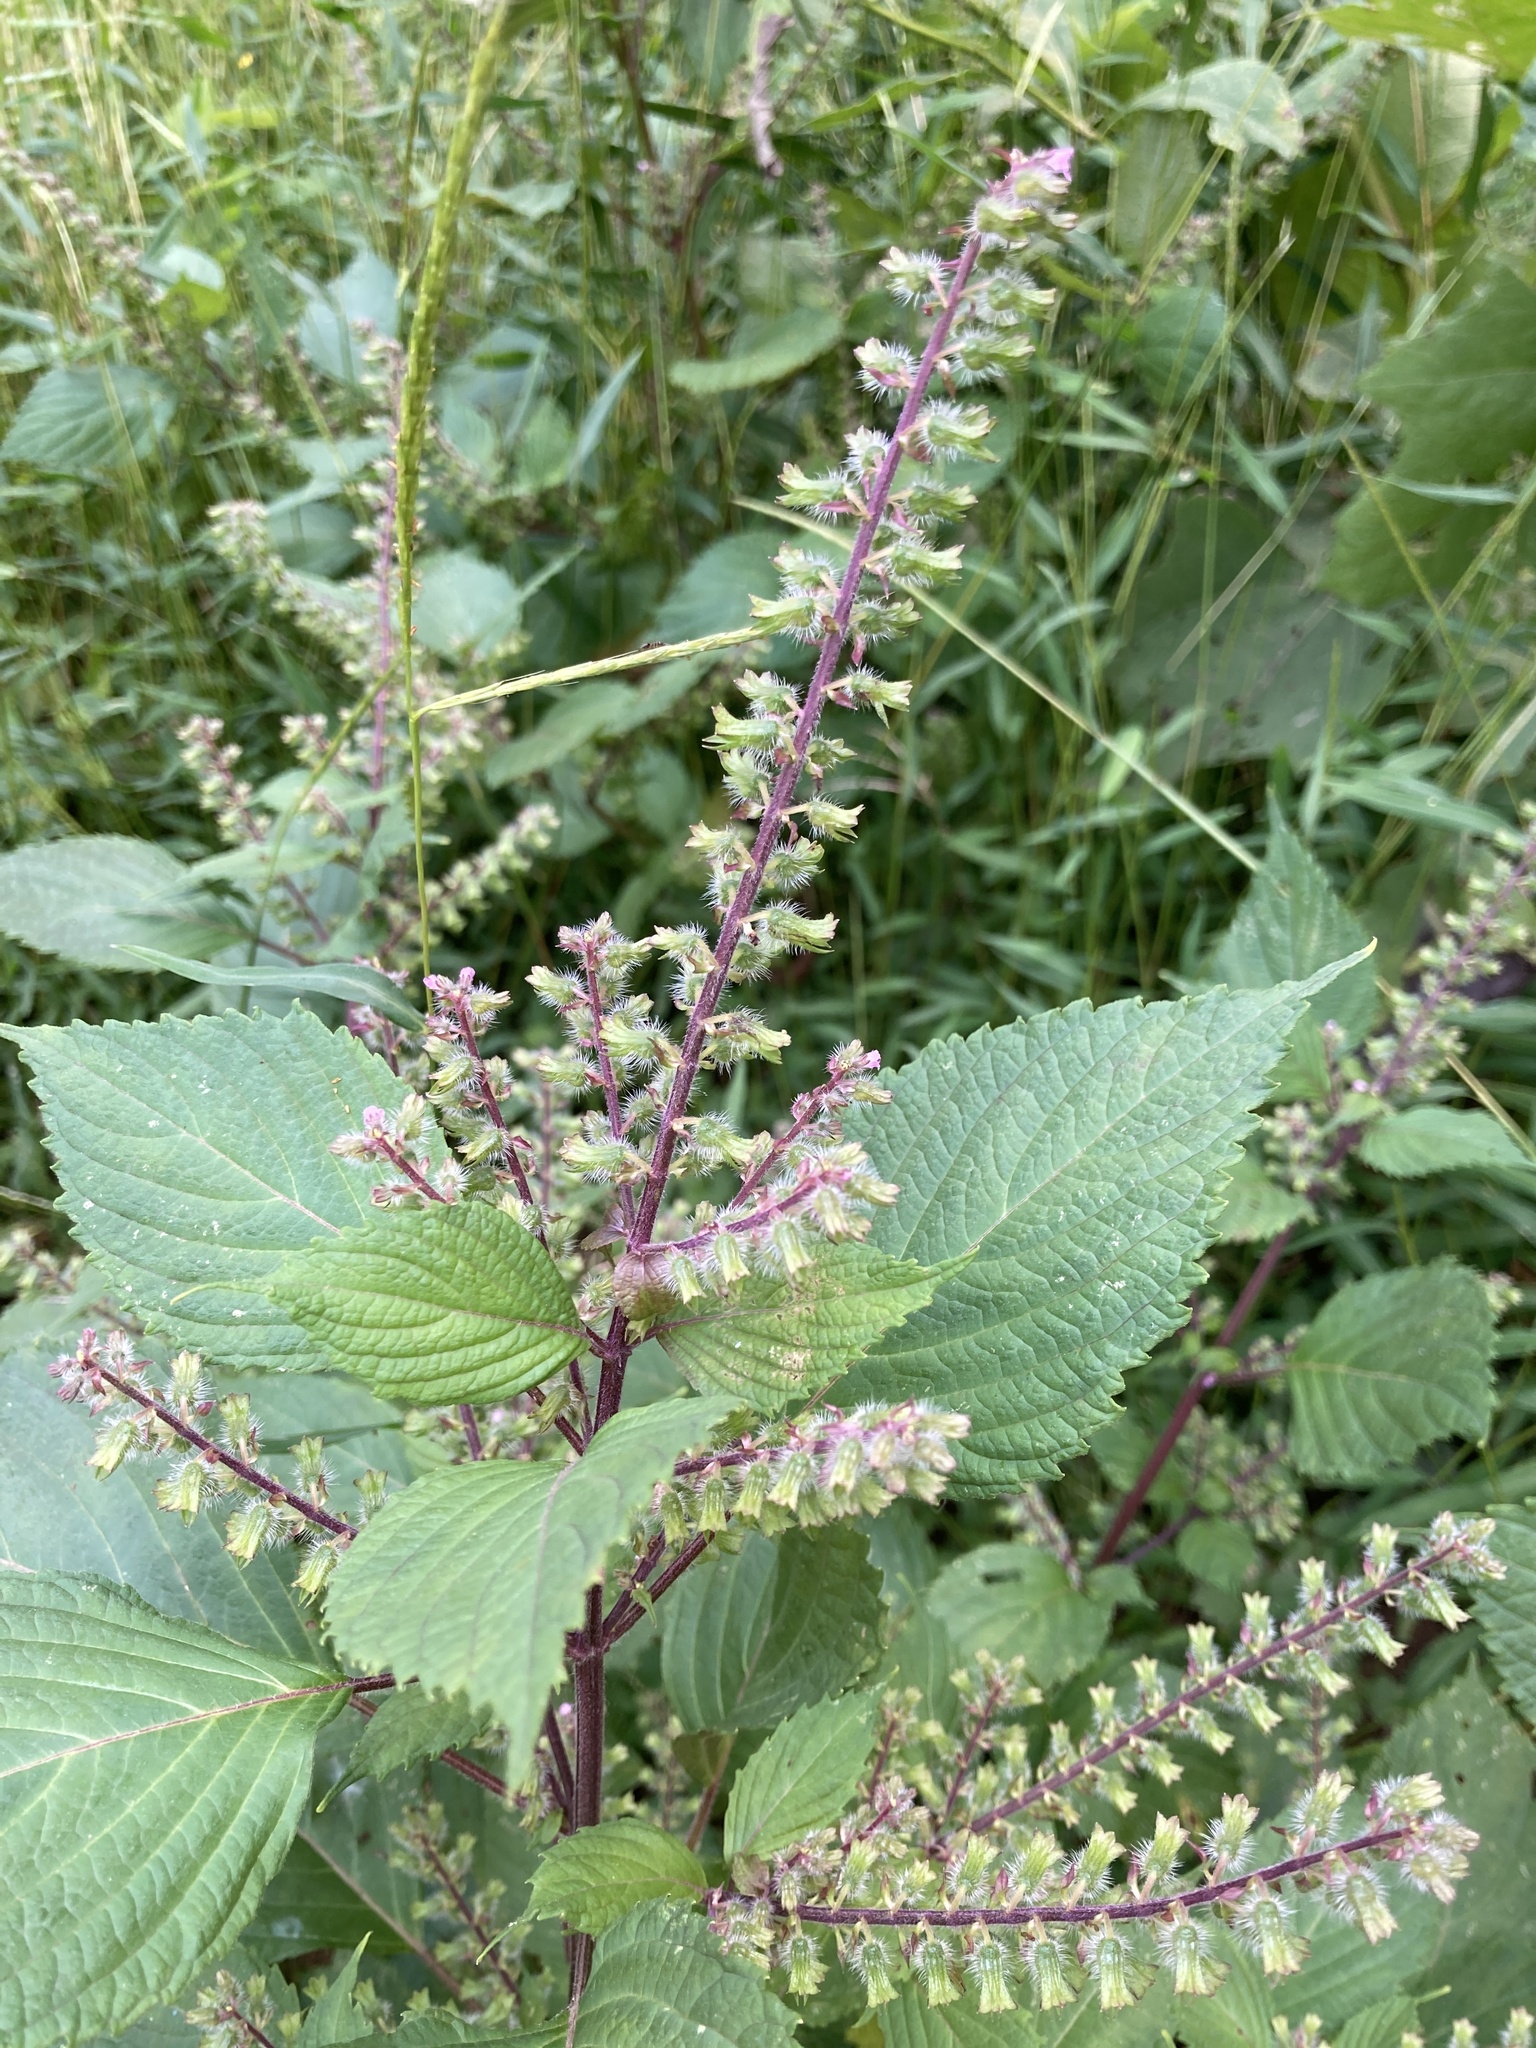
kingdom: Plantae
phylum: Tracheophyta
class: Magnoliopsida
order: Lamiales
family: Lamiaceae
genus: Perilla
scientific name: Perilla frutescens
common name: Perilla
